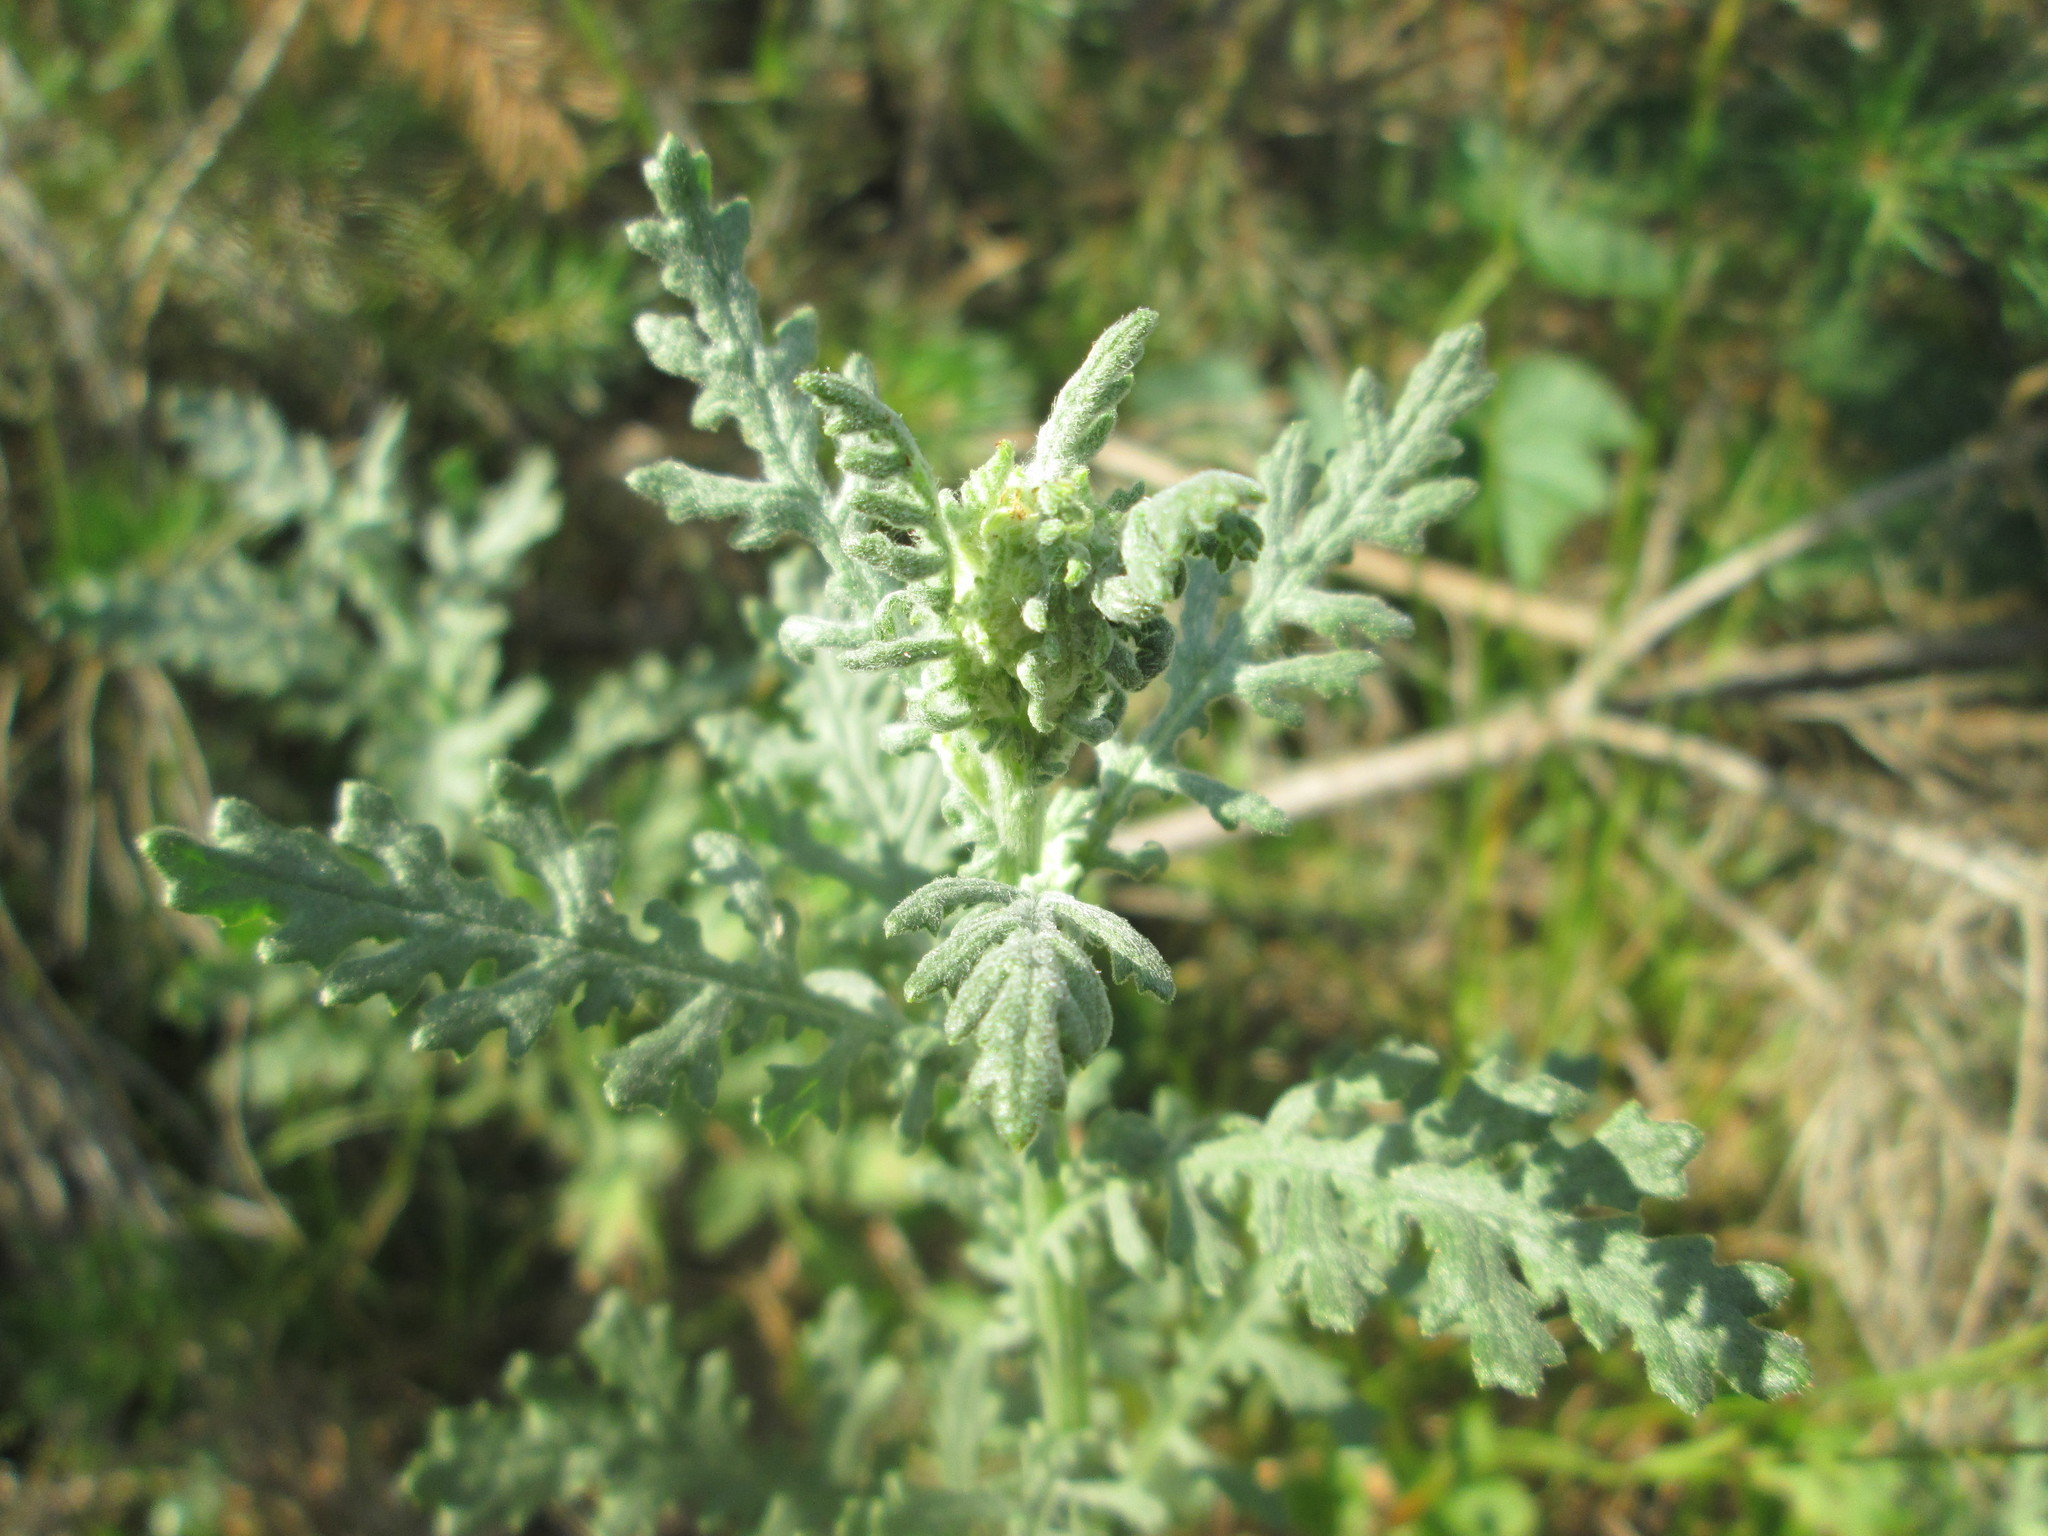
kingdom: Plantae
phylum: Tracheophyta
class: Magnoliopsida
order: Asterales
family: Asteraceae
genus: Senecio
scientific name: Senecio sylvaticus
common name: Woodland ragwort
